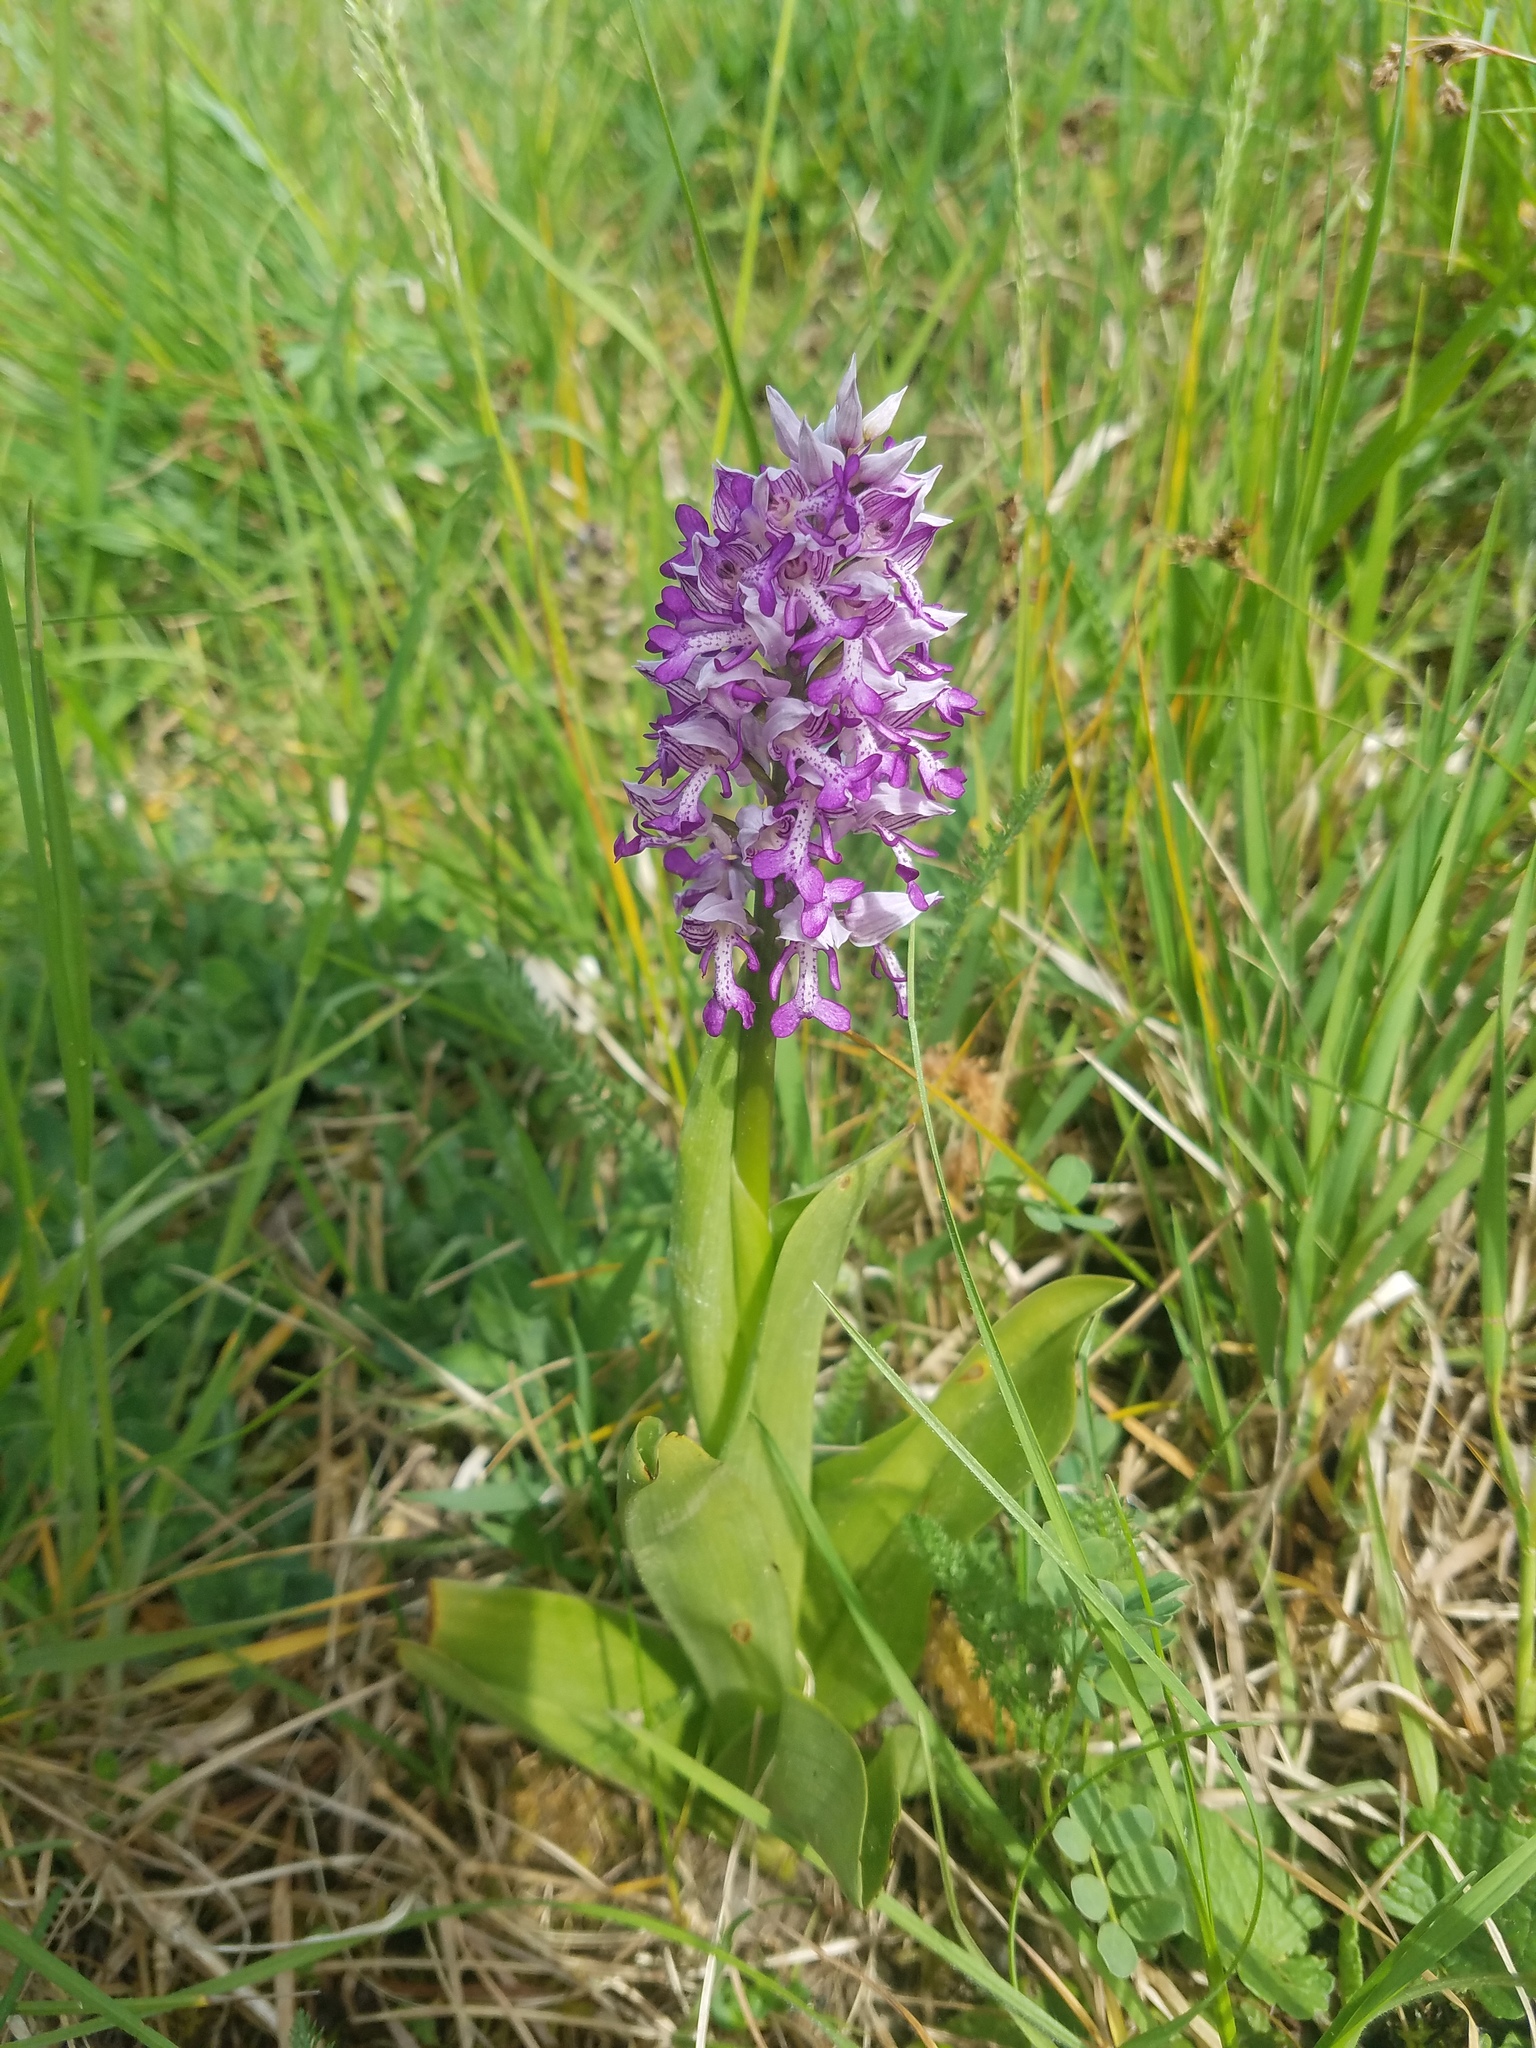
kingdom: Plantae
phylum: Tracheophyta
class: Liliopsida
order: Asparagales
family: Orchidaceae
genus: Orchis
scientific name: Orchis militaris
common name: Military orchid
